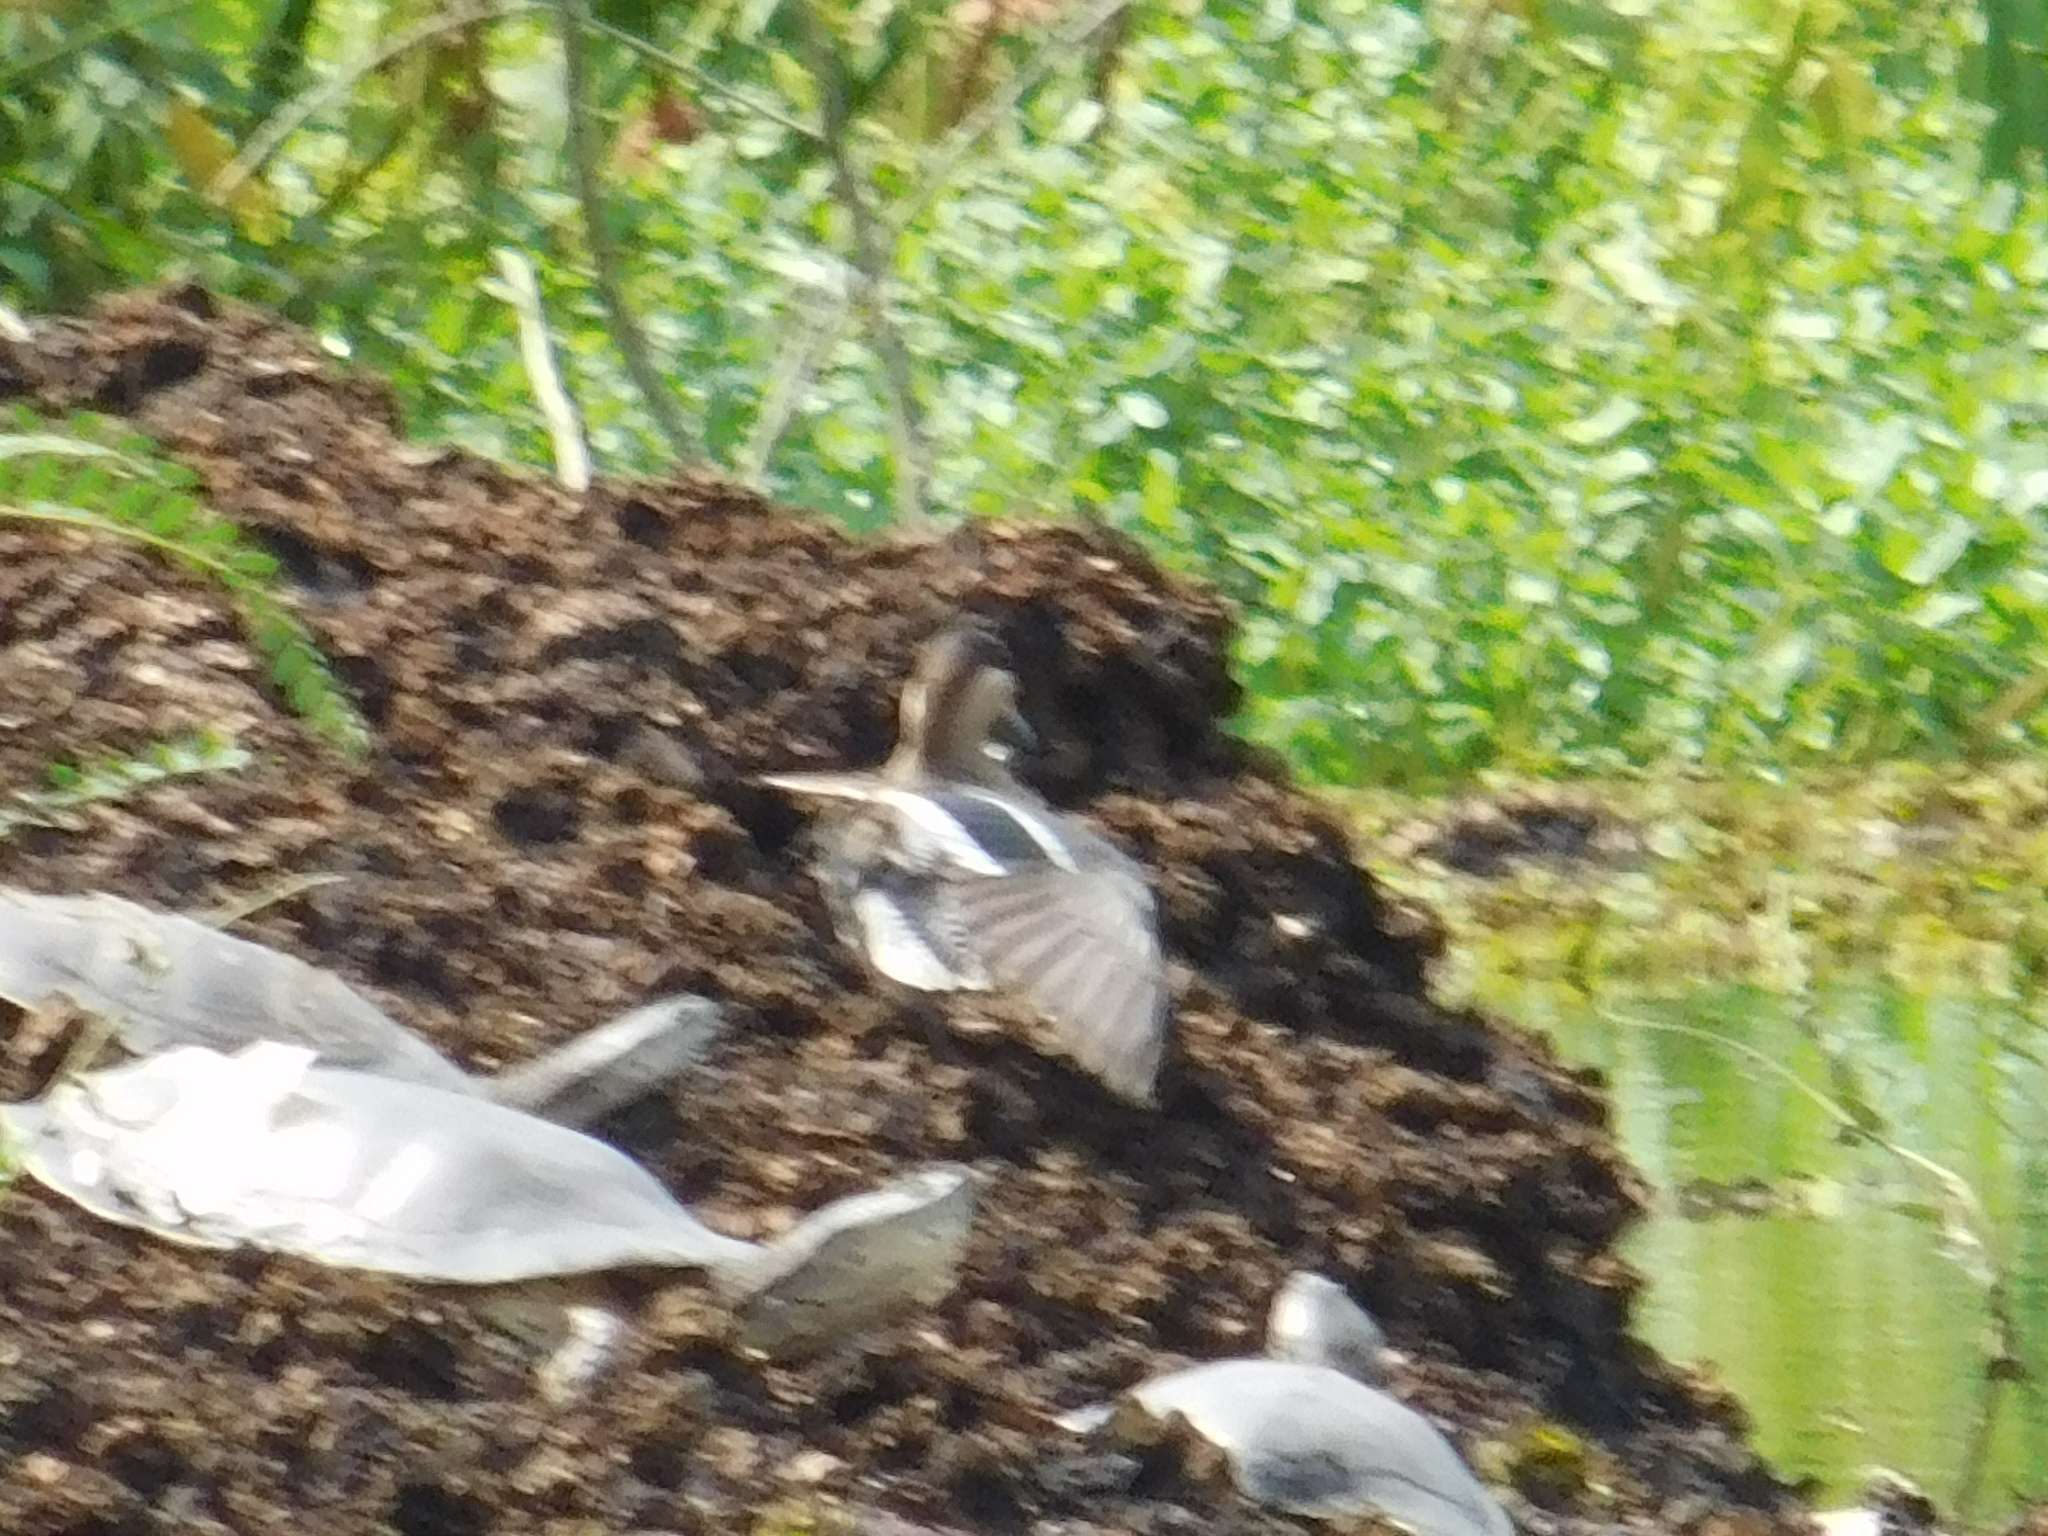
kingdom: Animalia
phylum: Chordata
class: Aves
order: Anseriformes
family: Anatidae
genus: Spatula
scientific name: Spatula versicolor
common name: Silver teal
